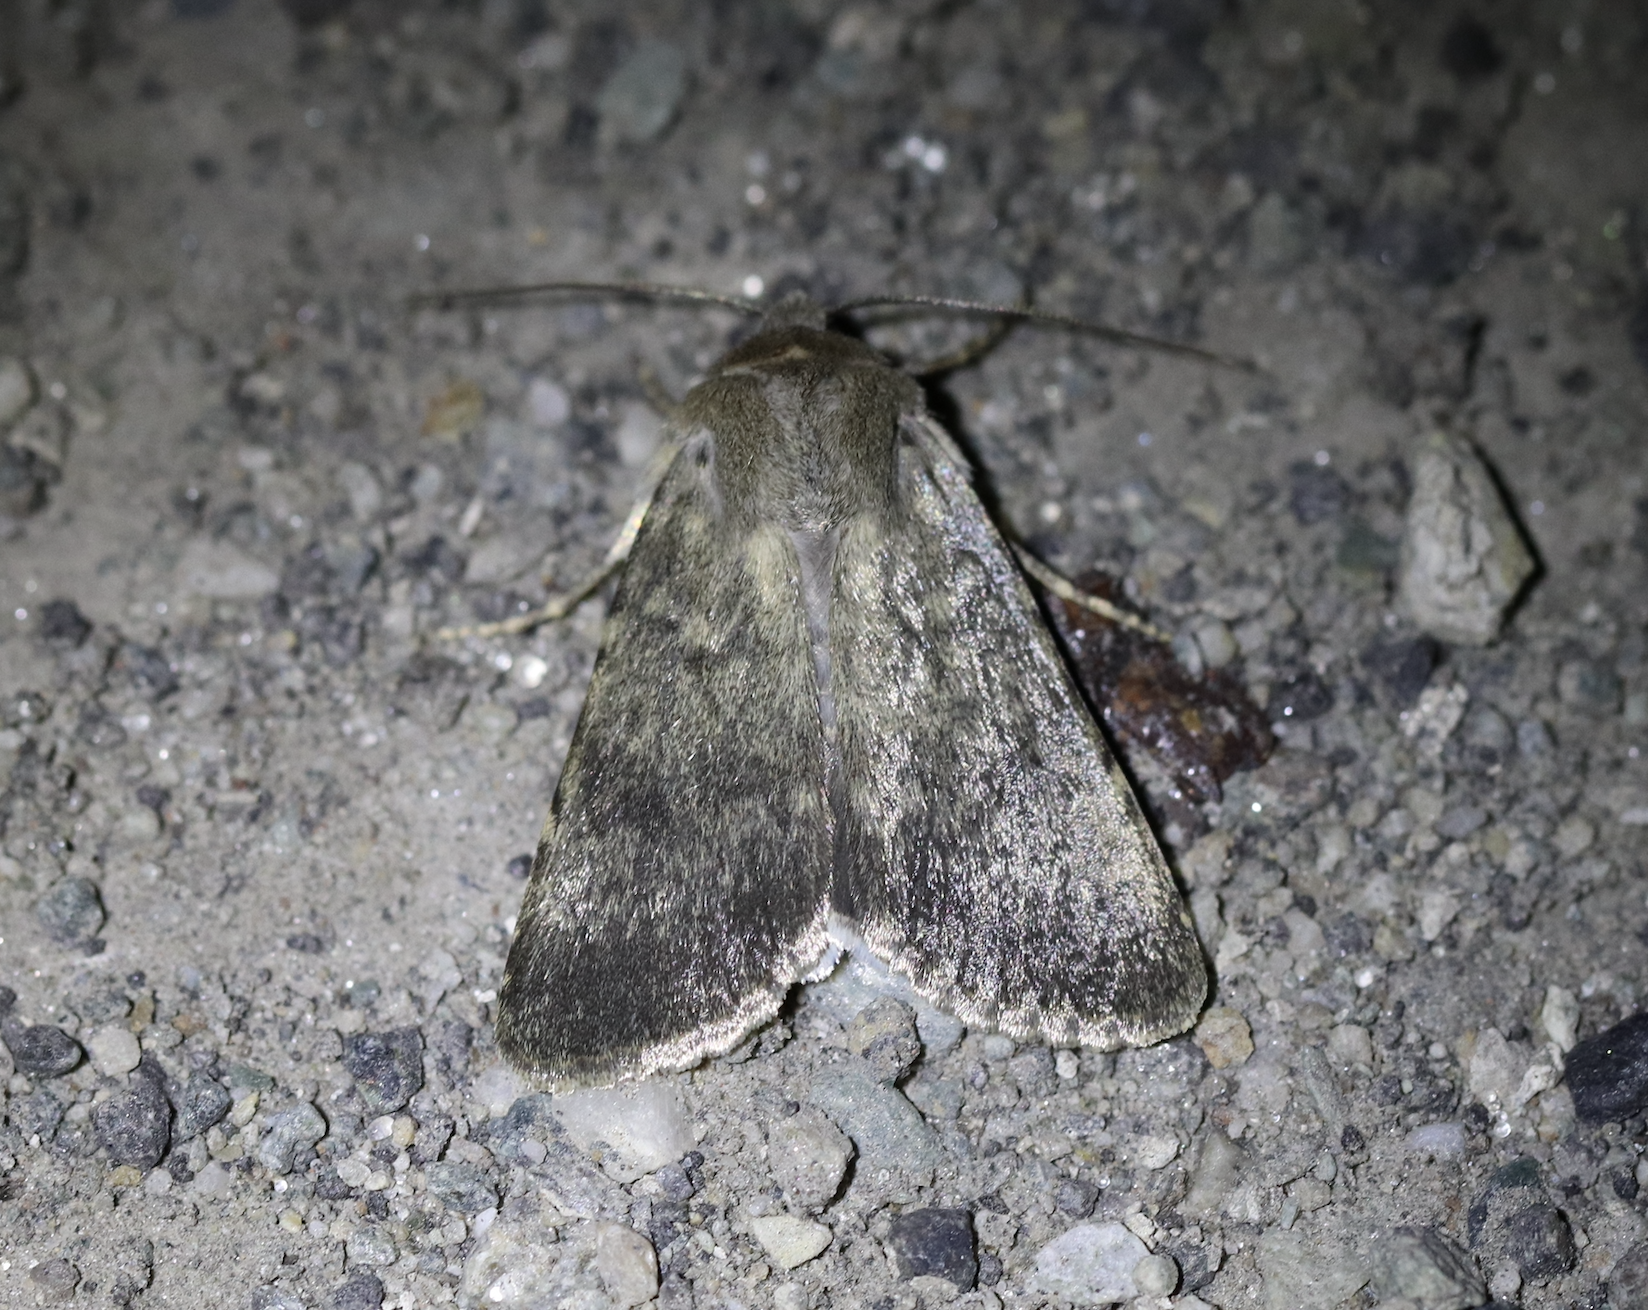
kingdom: Animalia
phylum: Arthropoda
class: Insecta
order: Lepidoptera
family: Noctuidae
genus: Standfussiana
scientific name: Standfussiana lucernea
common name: Northern rustic
